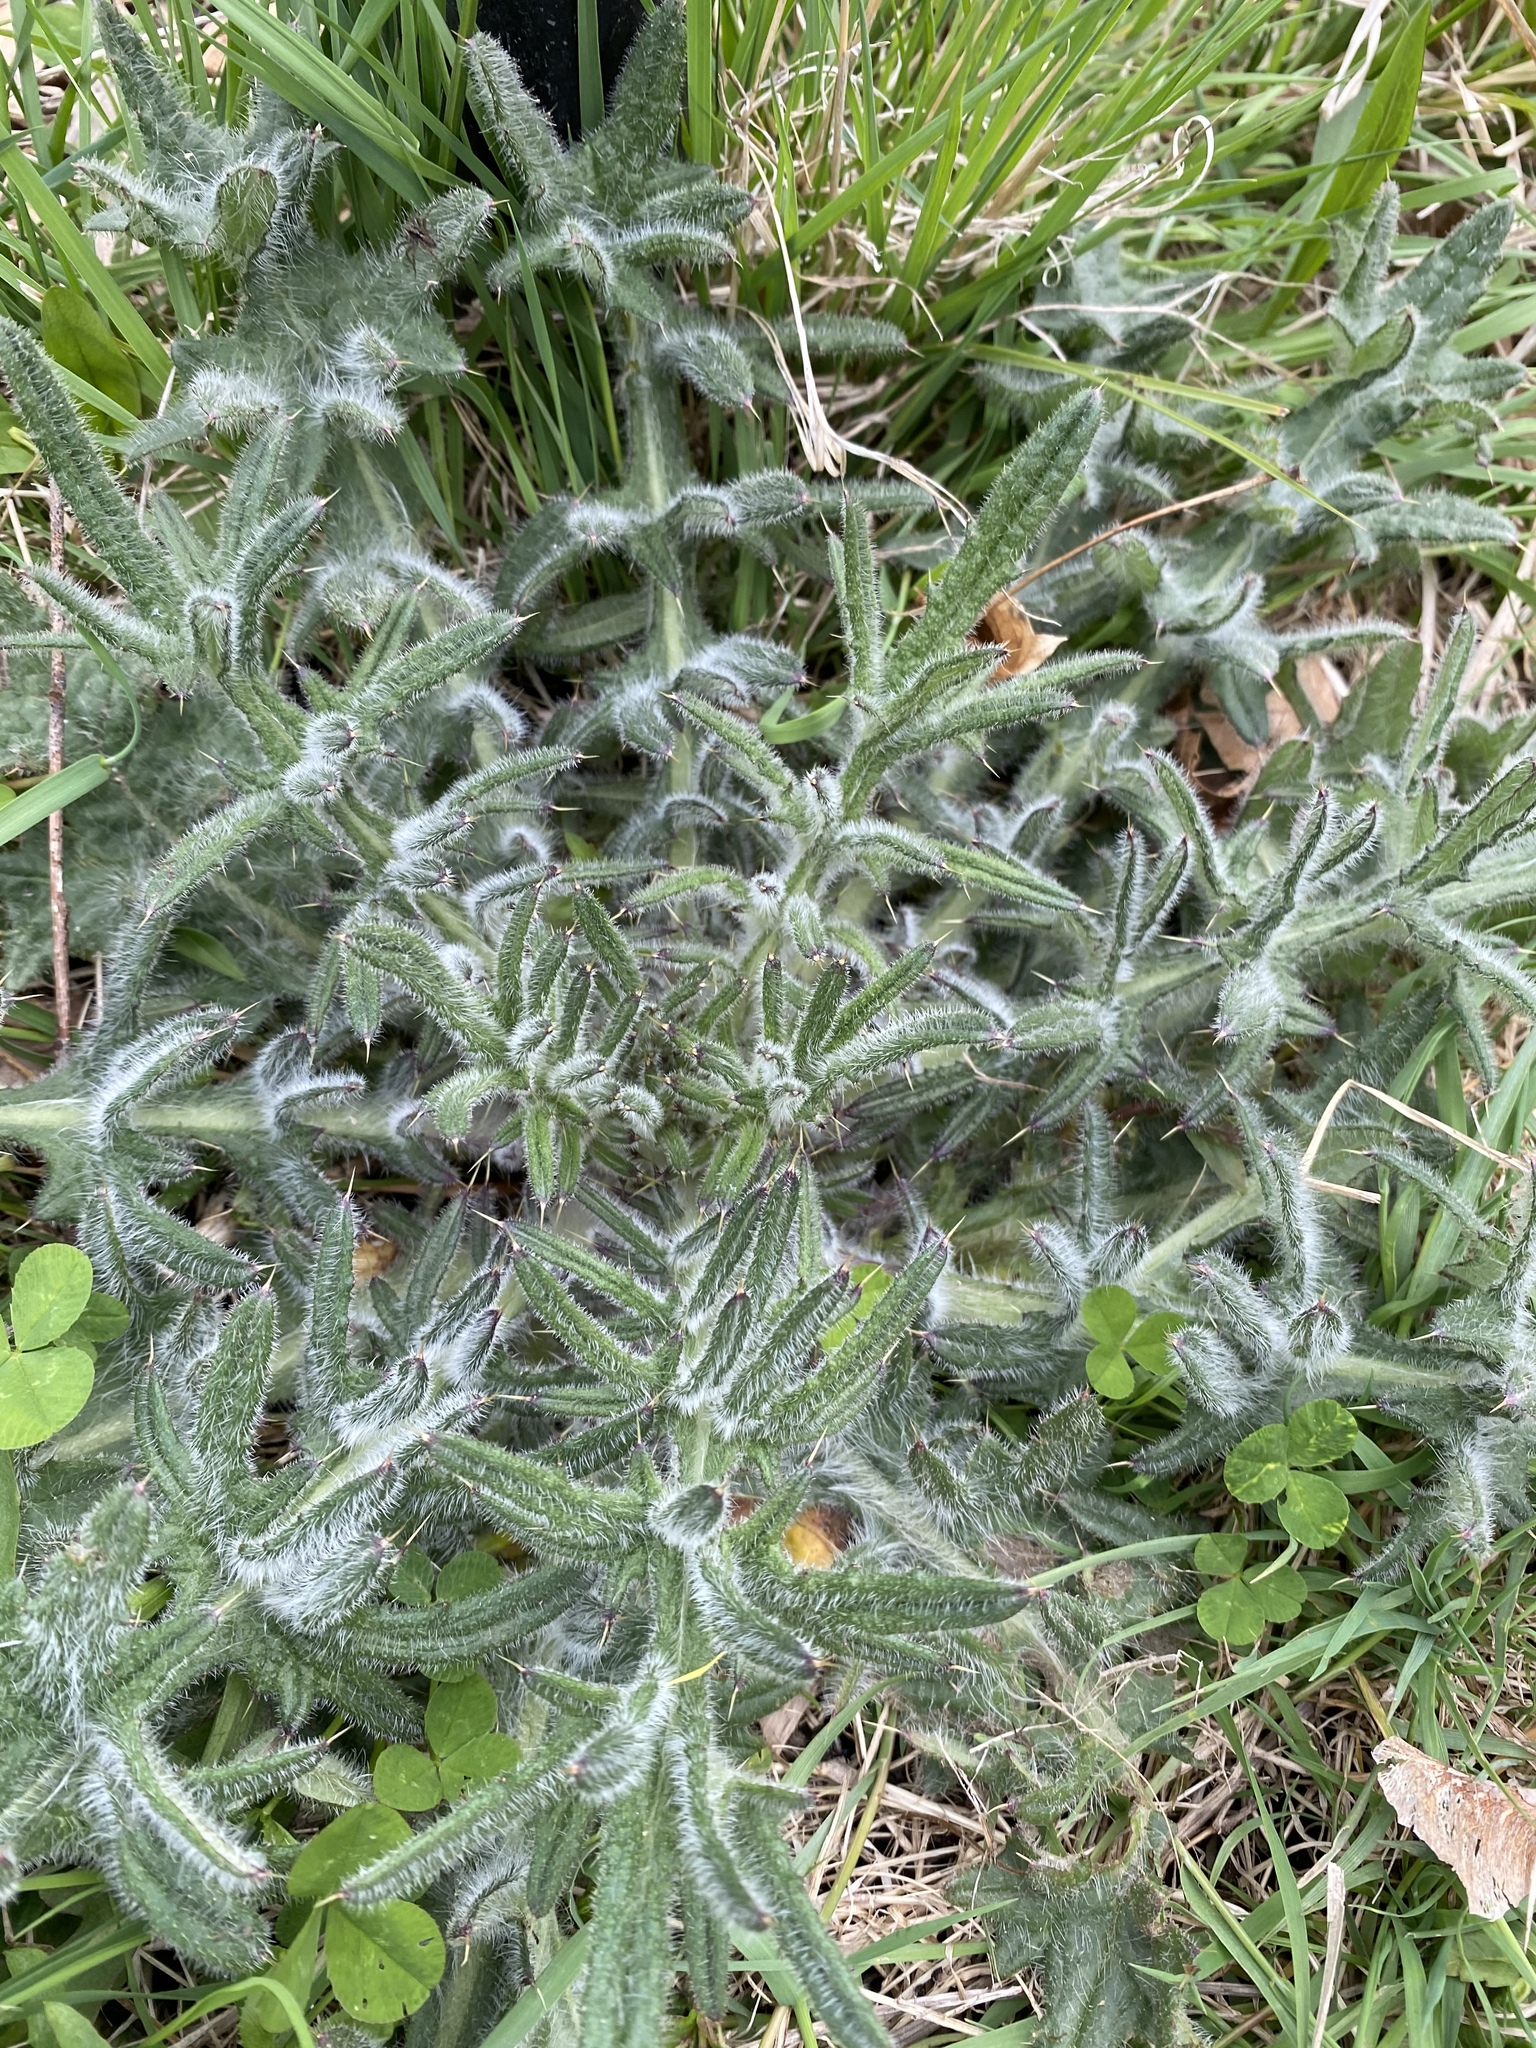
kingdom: Plantae
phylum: Tracheophyta
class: Magnoliopsida
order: Asterales
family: Asteraceae
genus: Cirsium
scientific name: Cirsium vulgare
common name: Bull thistle
